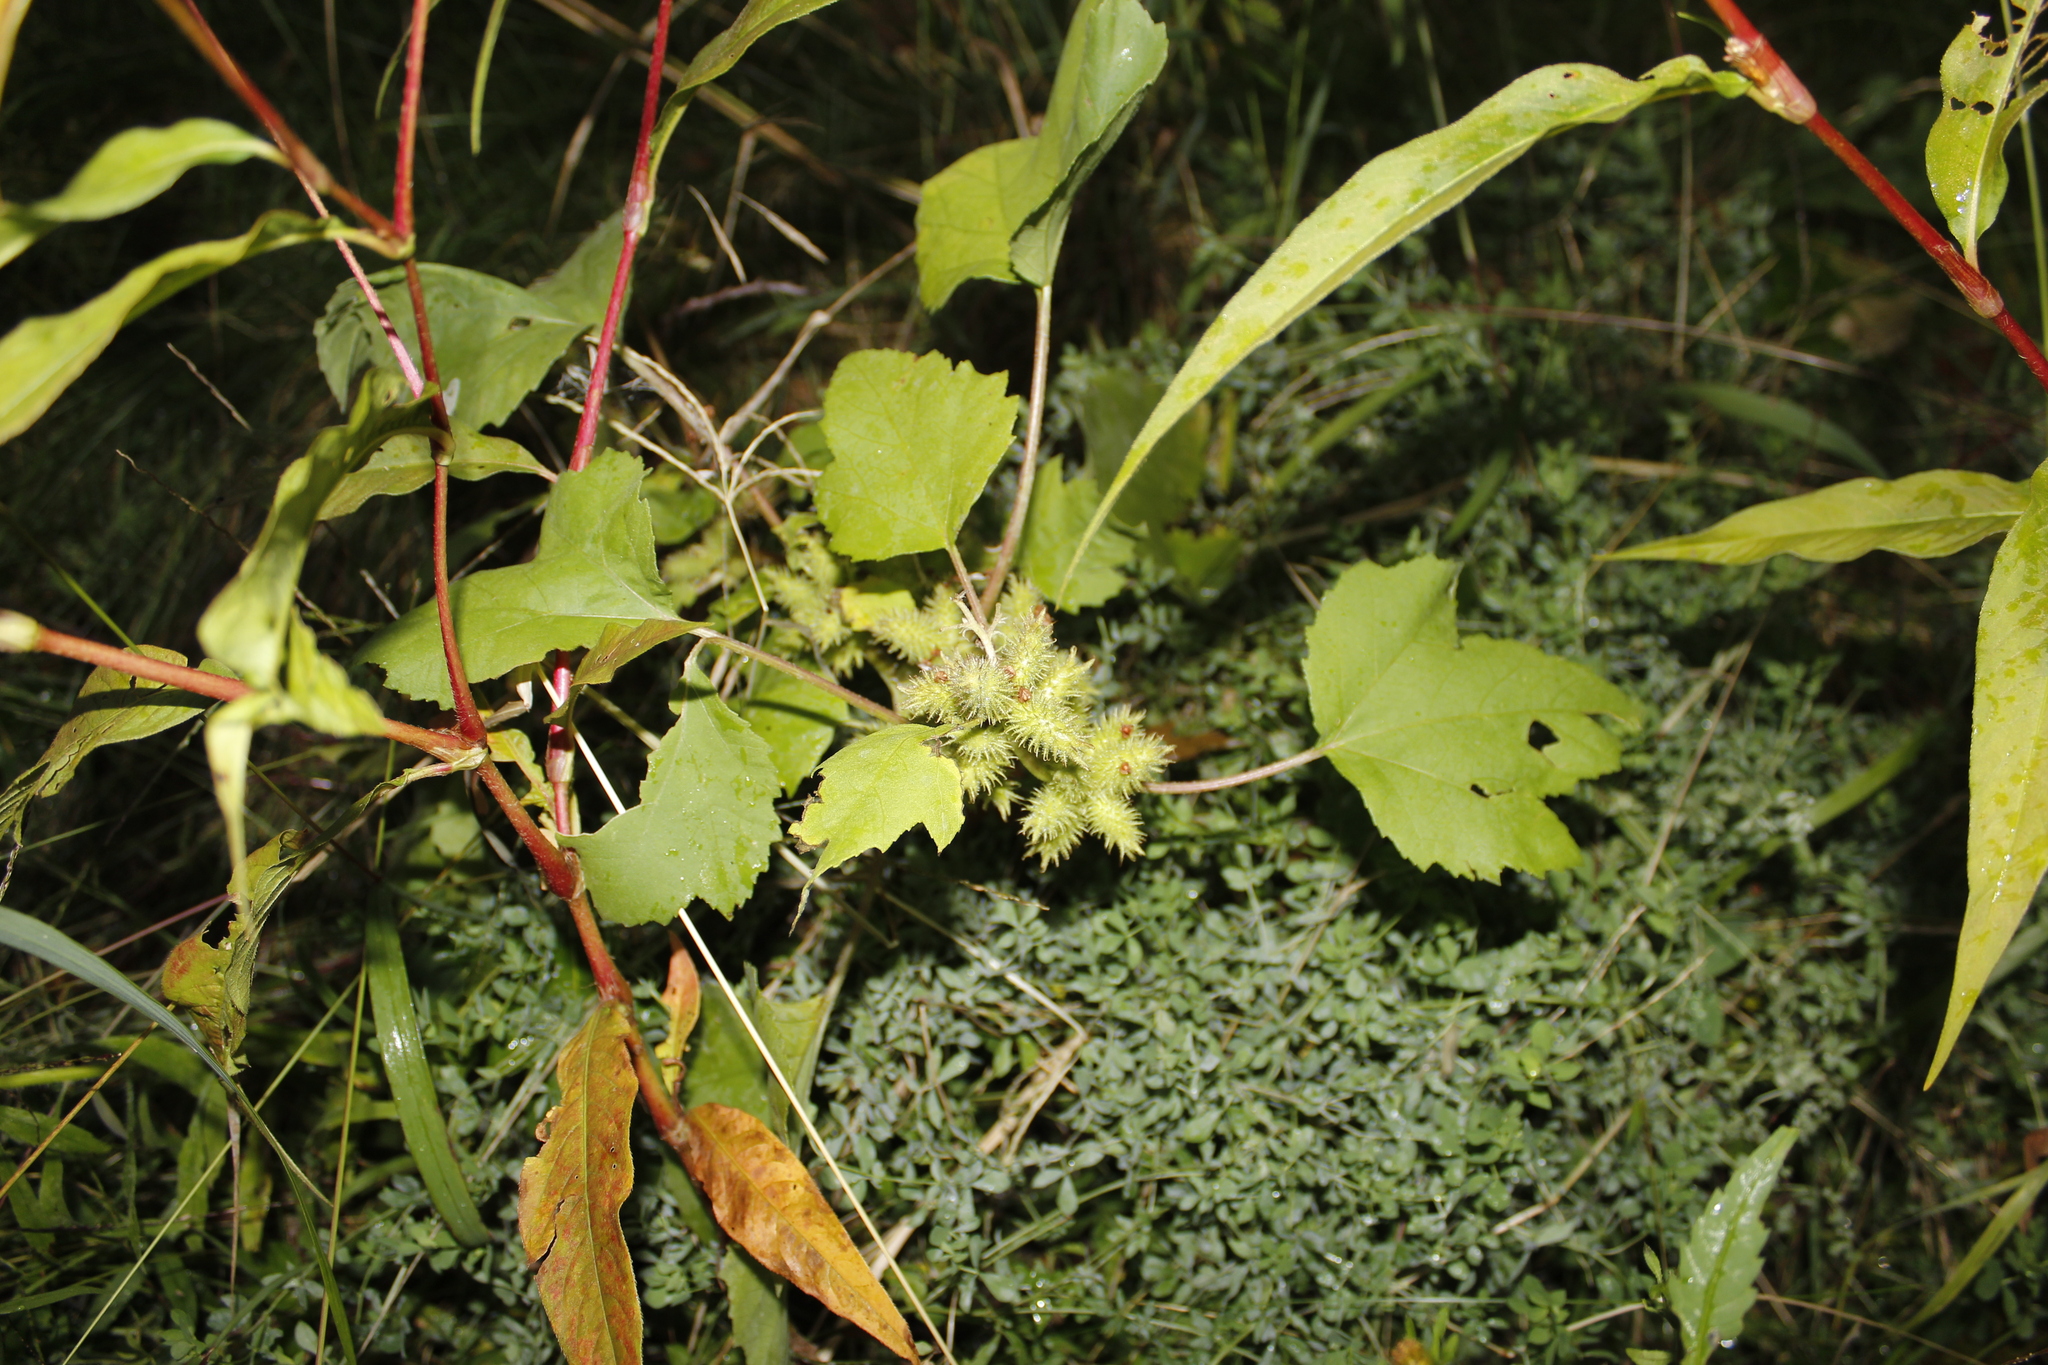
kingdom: Plantae
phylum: Tracheophyta
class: Magnoliopsida
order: Asterales
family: Asteraceae
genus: Xanthium
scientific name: Xanthium orientale
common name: Californian burr
